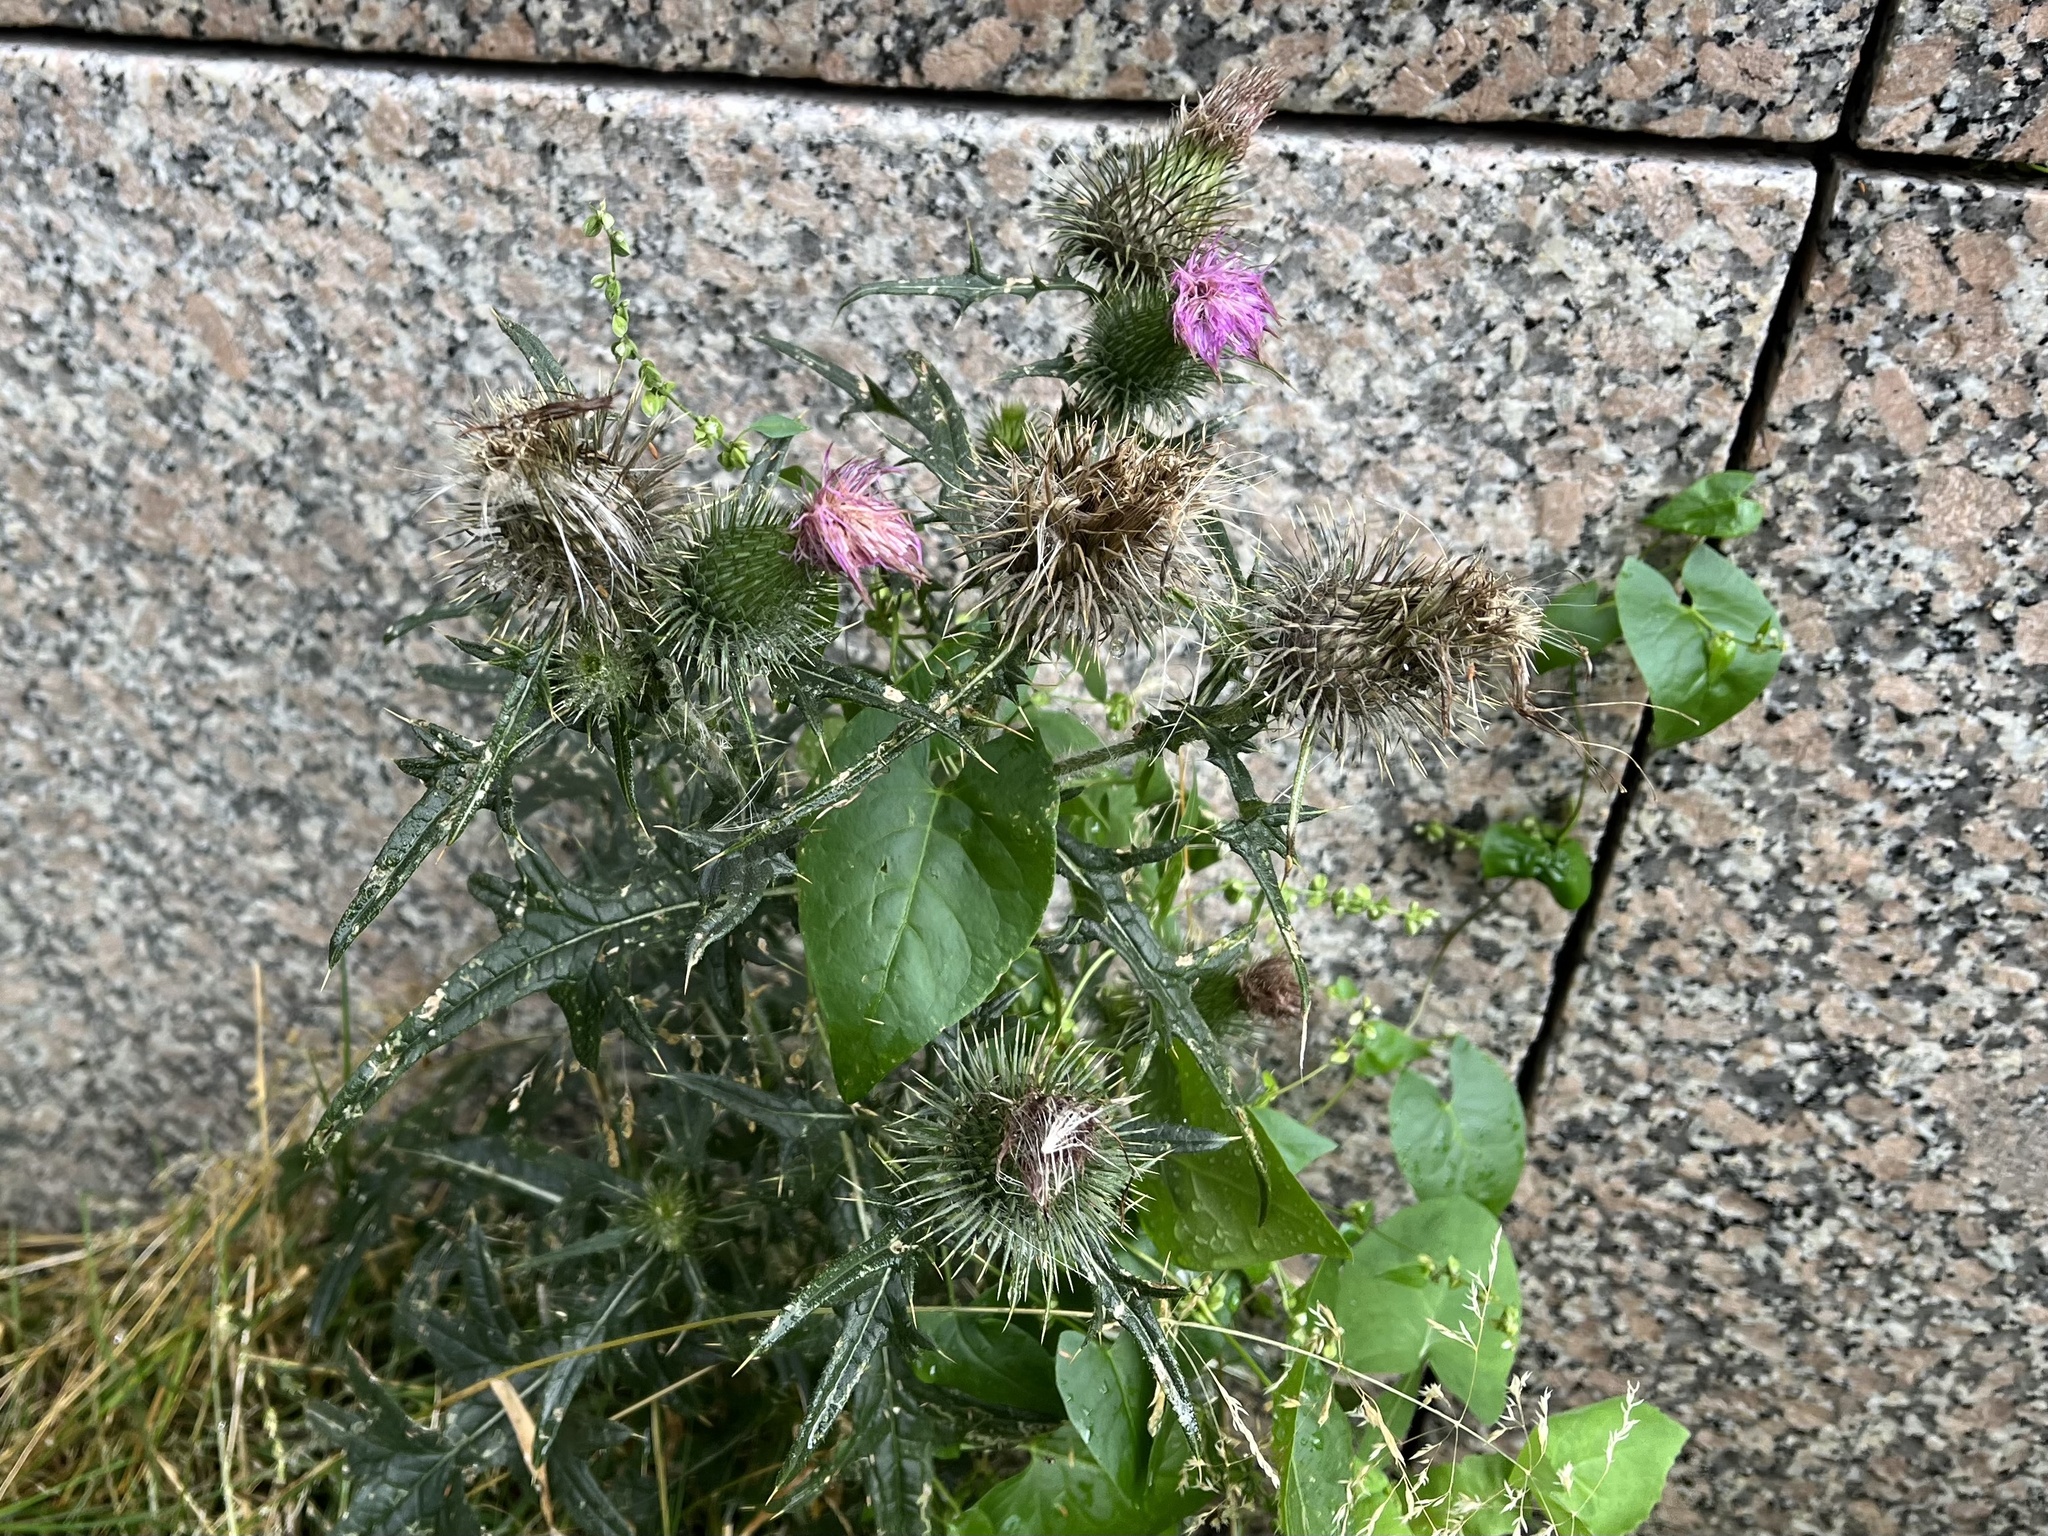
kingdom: Plantae
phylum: Tracheophyta
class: Magnoliopsida
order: Asterales
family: Asteraceae
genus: Cirsium
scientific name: Cirsium vulgare
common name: Bull thistle
